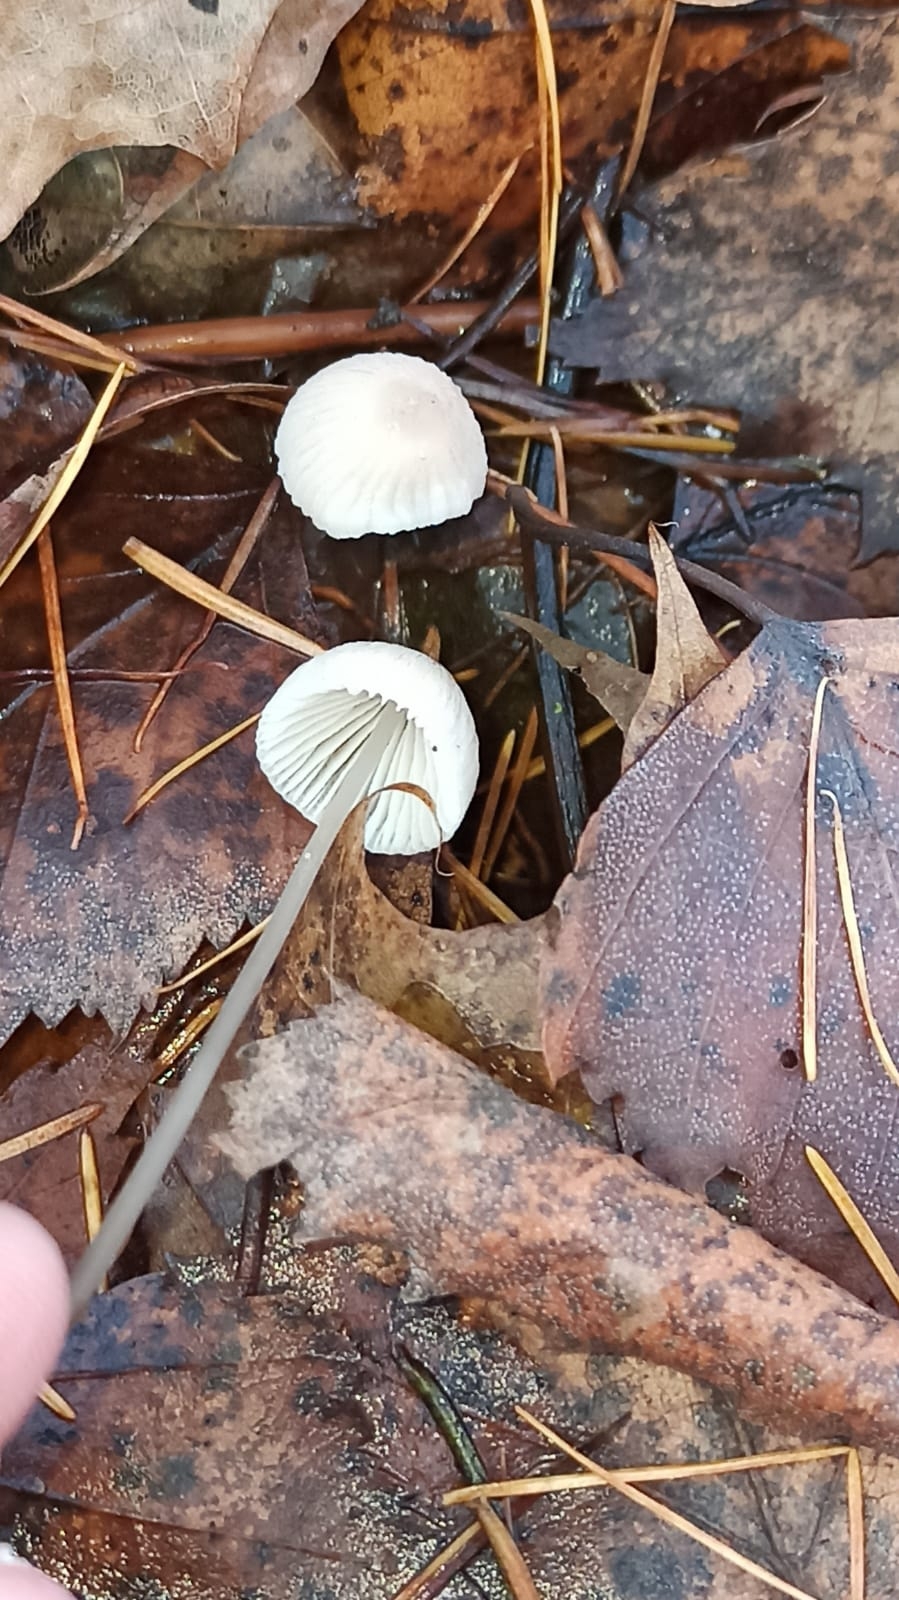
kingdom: Fungi
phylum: Basidiomycota
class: Agaricomycetes
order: Agaricales
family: Mycenaceae
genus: Mycena
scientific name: Mycena filopes
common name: Iodine bonnet
